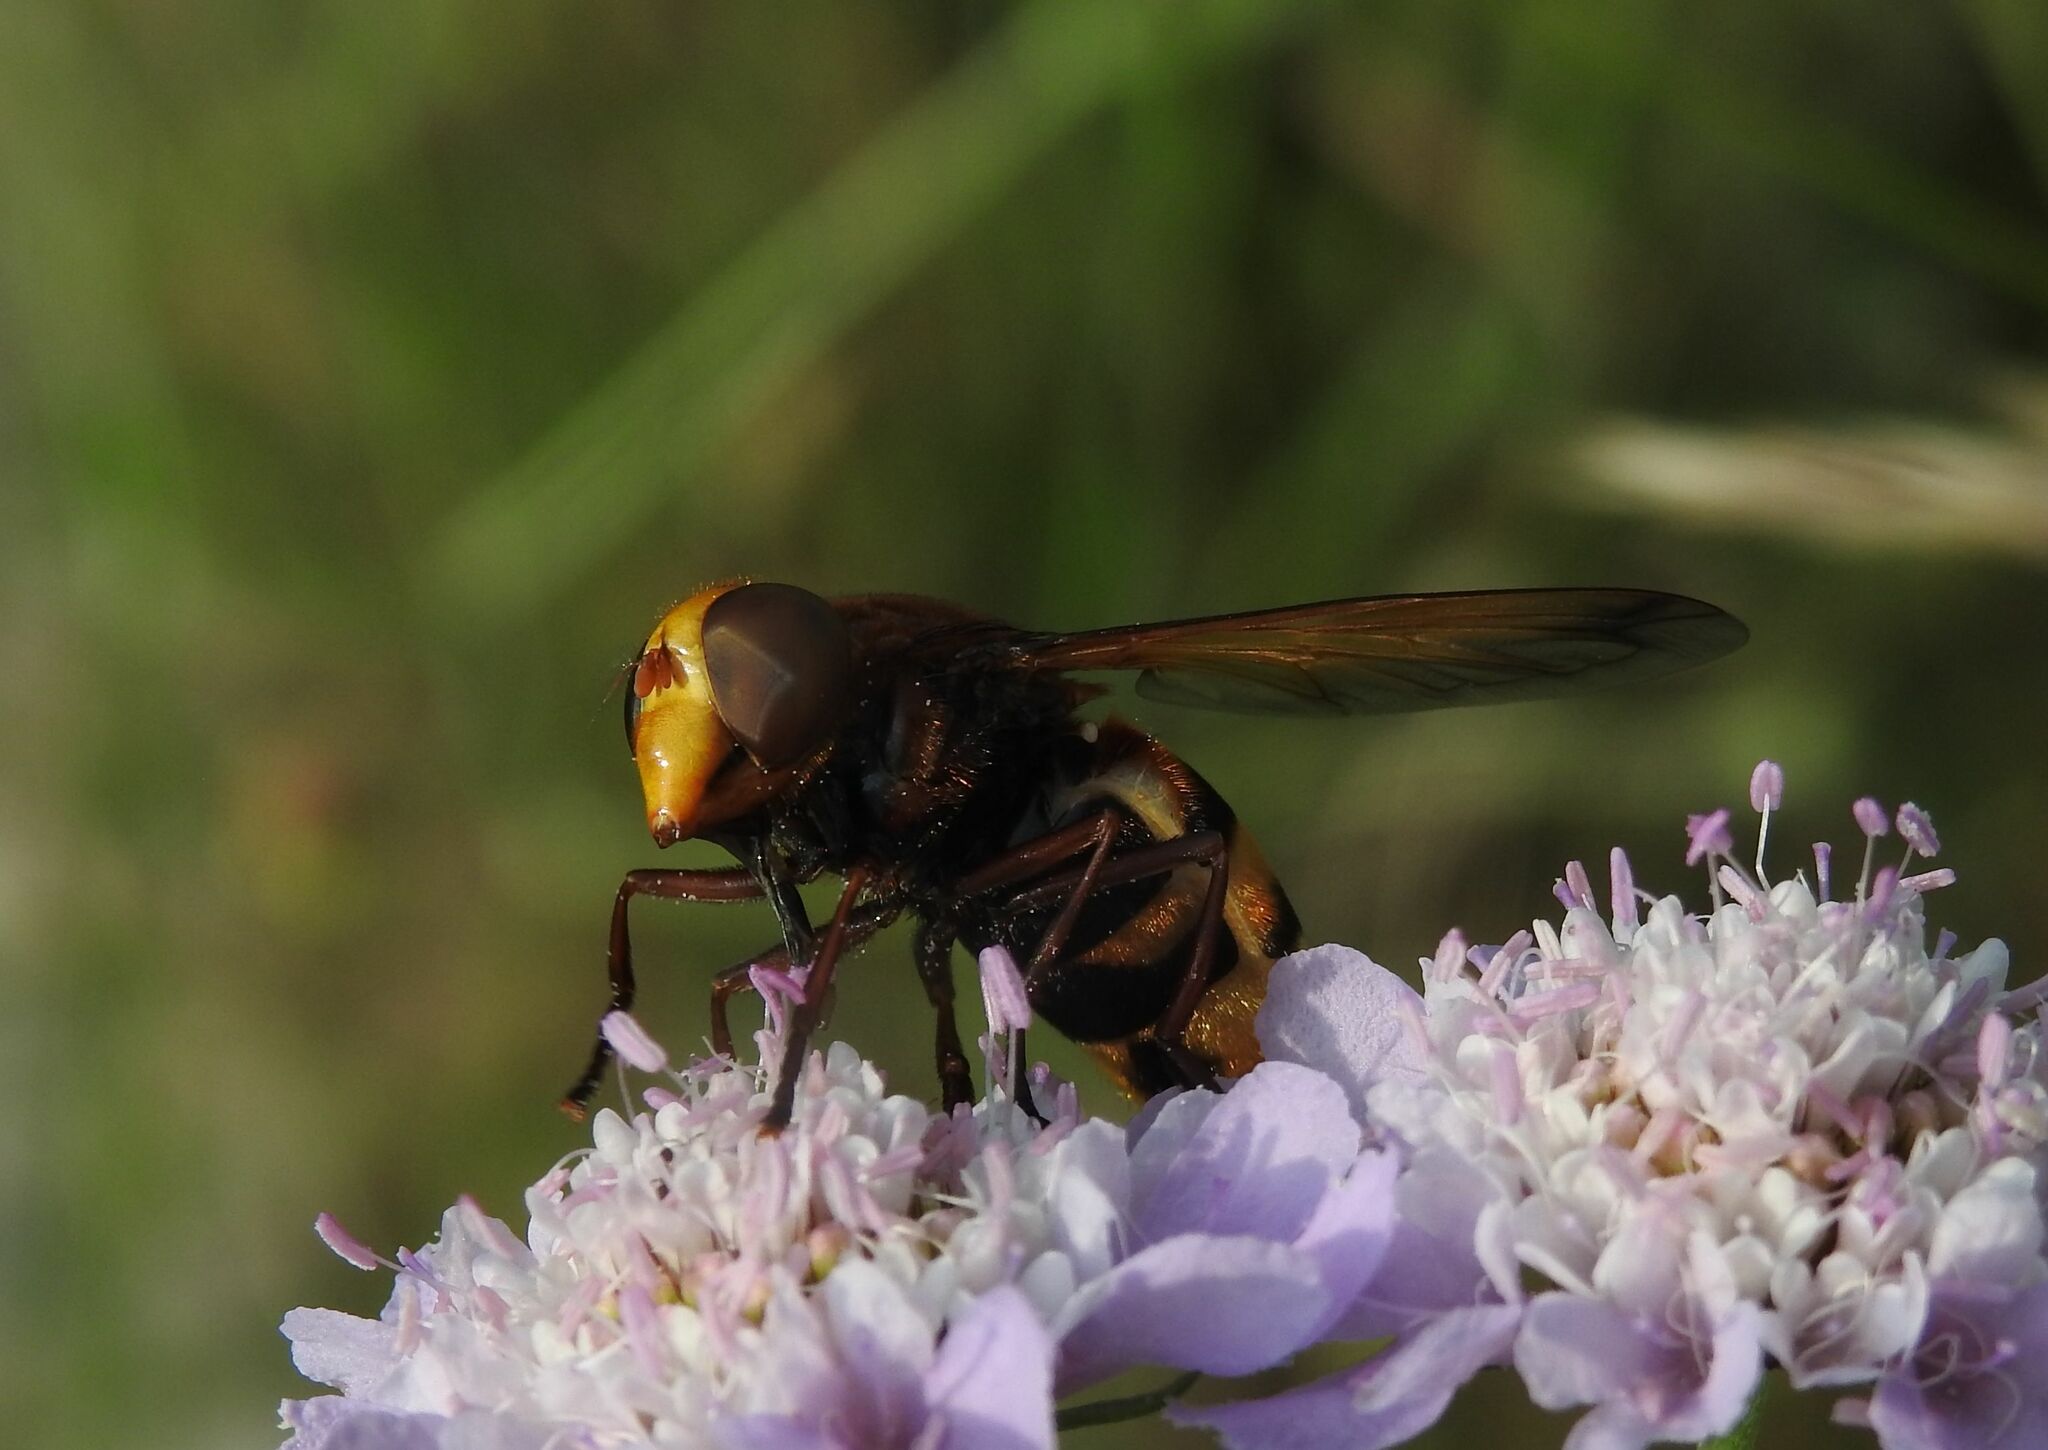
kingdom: Animalia
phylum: Arthropoda
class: Insecta
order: Diptera
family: Syrphidae
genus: Volucella
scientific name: Volucella zonaria
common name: Hornet hoverfly
